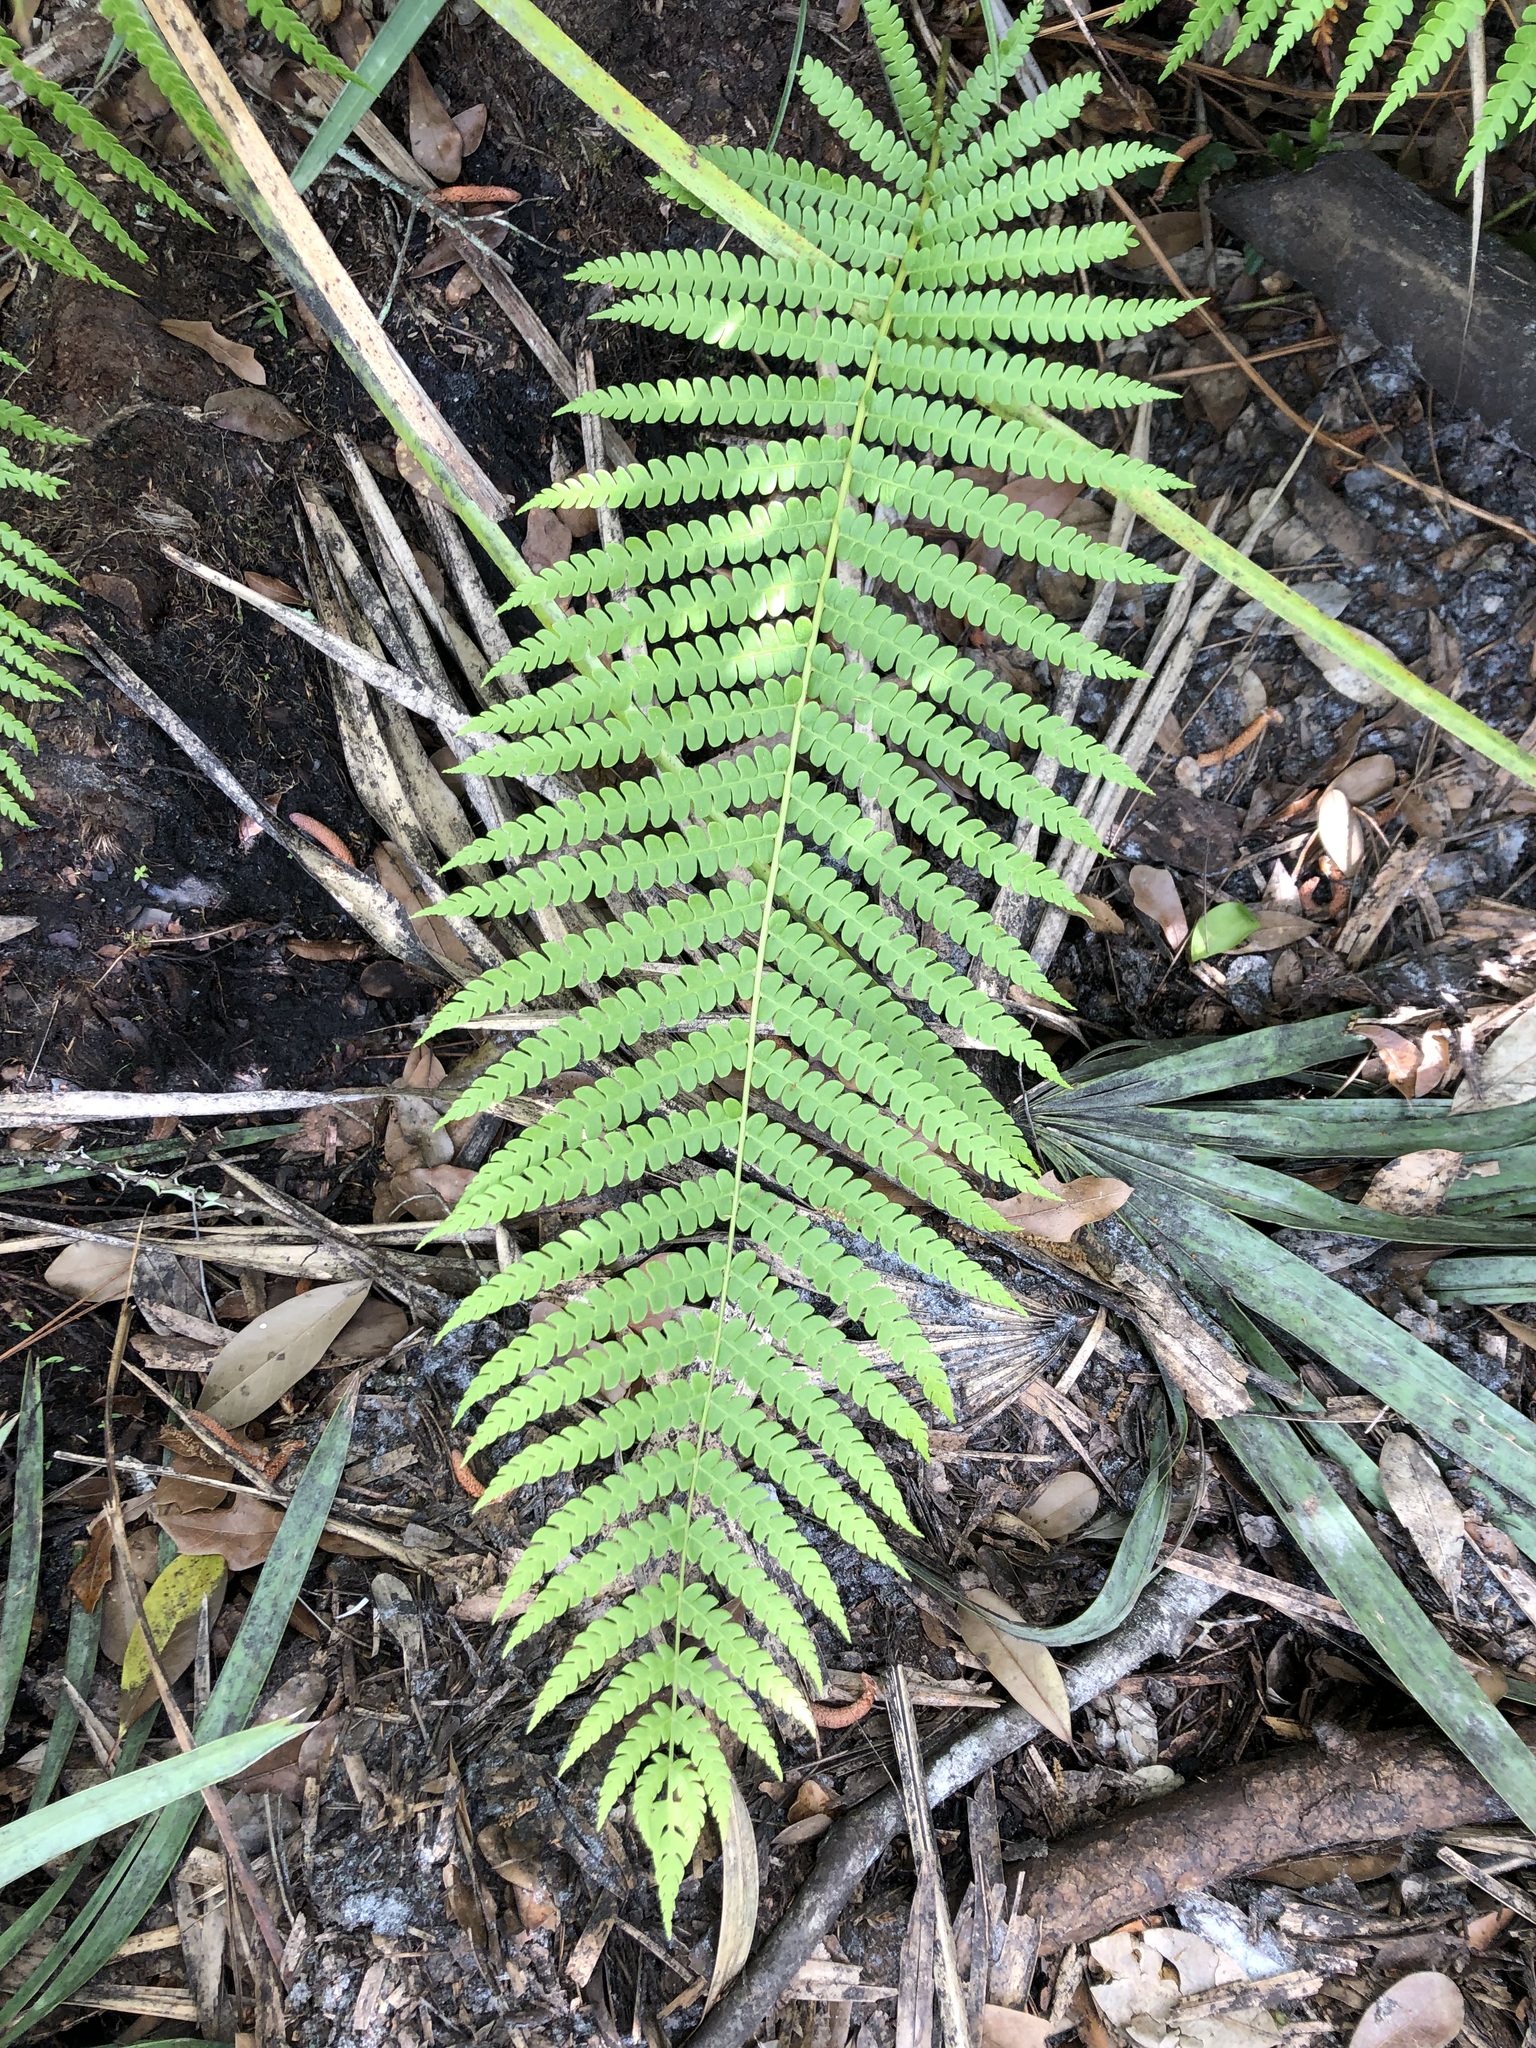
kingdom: Plantae
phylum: Tracheophyta
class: Polypodiopsida
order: Osmundales
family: Osmundaceae
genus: Osmundastrum
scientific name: Osmundastrum cinnamomeum
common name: Cinnamon fern
